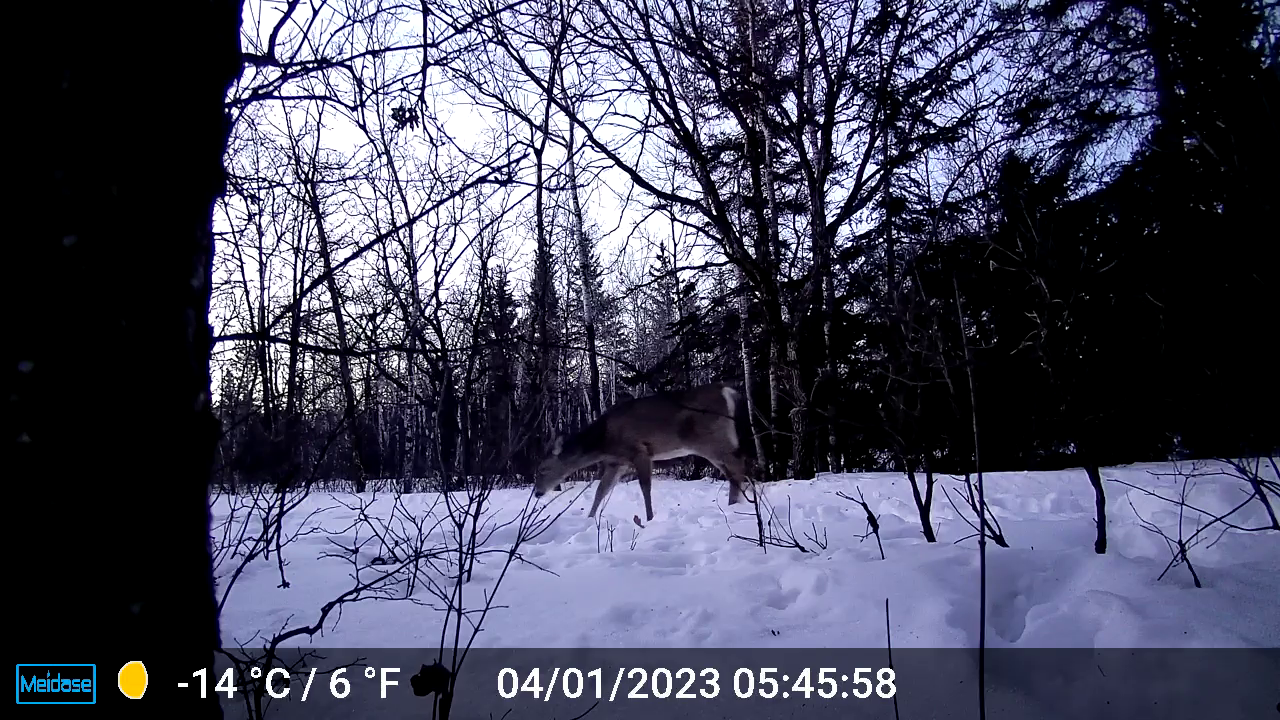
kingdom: Animalia
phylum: Chordata
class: Mammalia
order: Artiodactyla
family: Cervidae
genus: Odocoileus
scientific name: Odocoileus virginianus
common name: White-tailed deer
